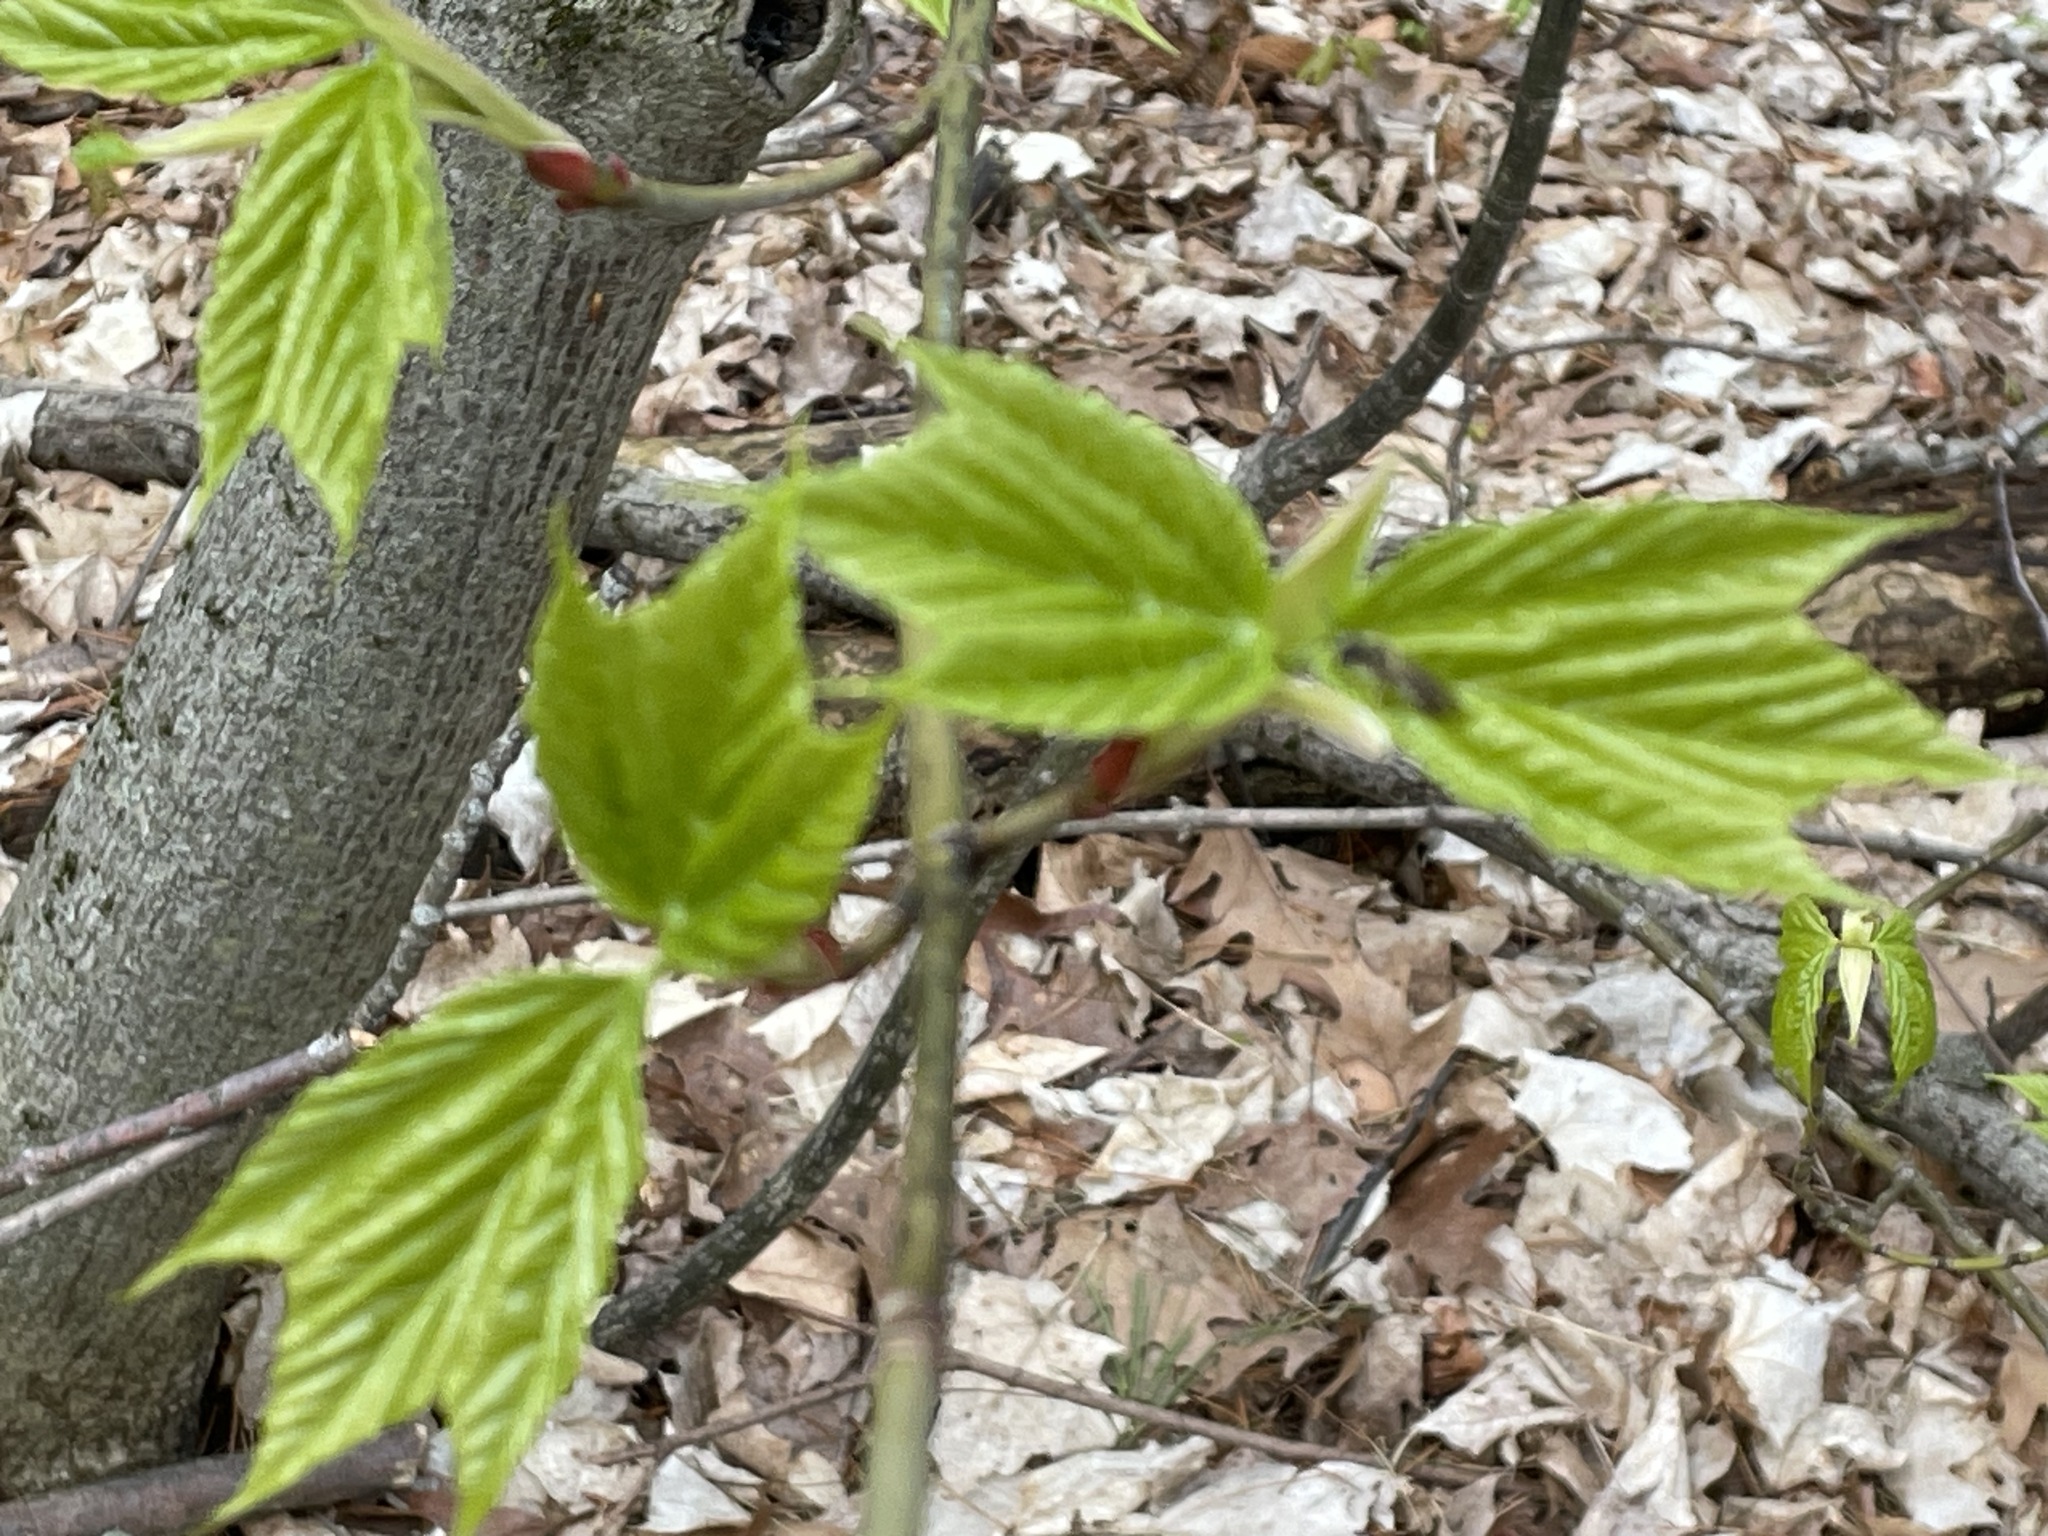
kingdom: Plantae
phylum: Tracheophyta
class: Magnoliopsida
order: Sapindales
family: Sapindaceae
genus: Acer
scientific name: Acer pensylvanicum
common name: Moosewood
